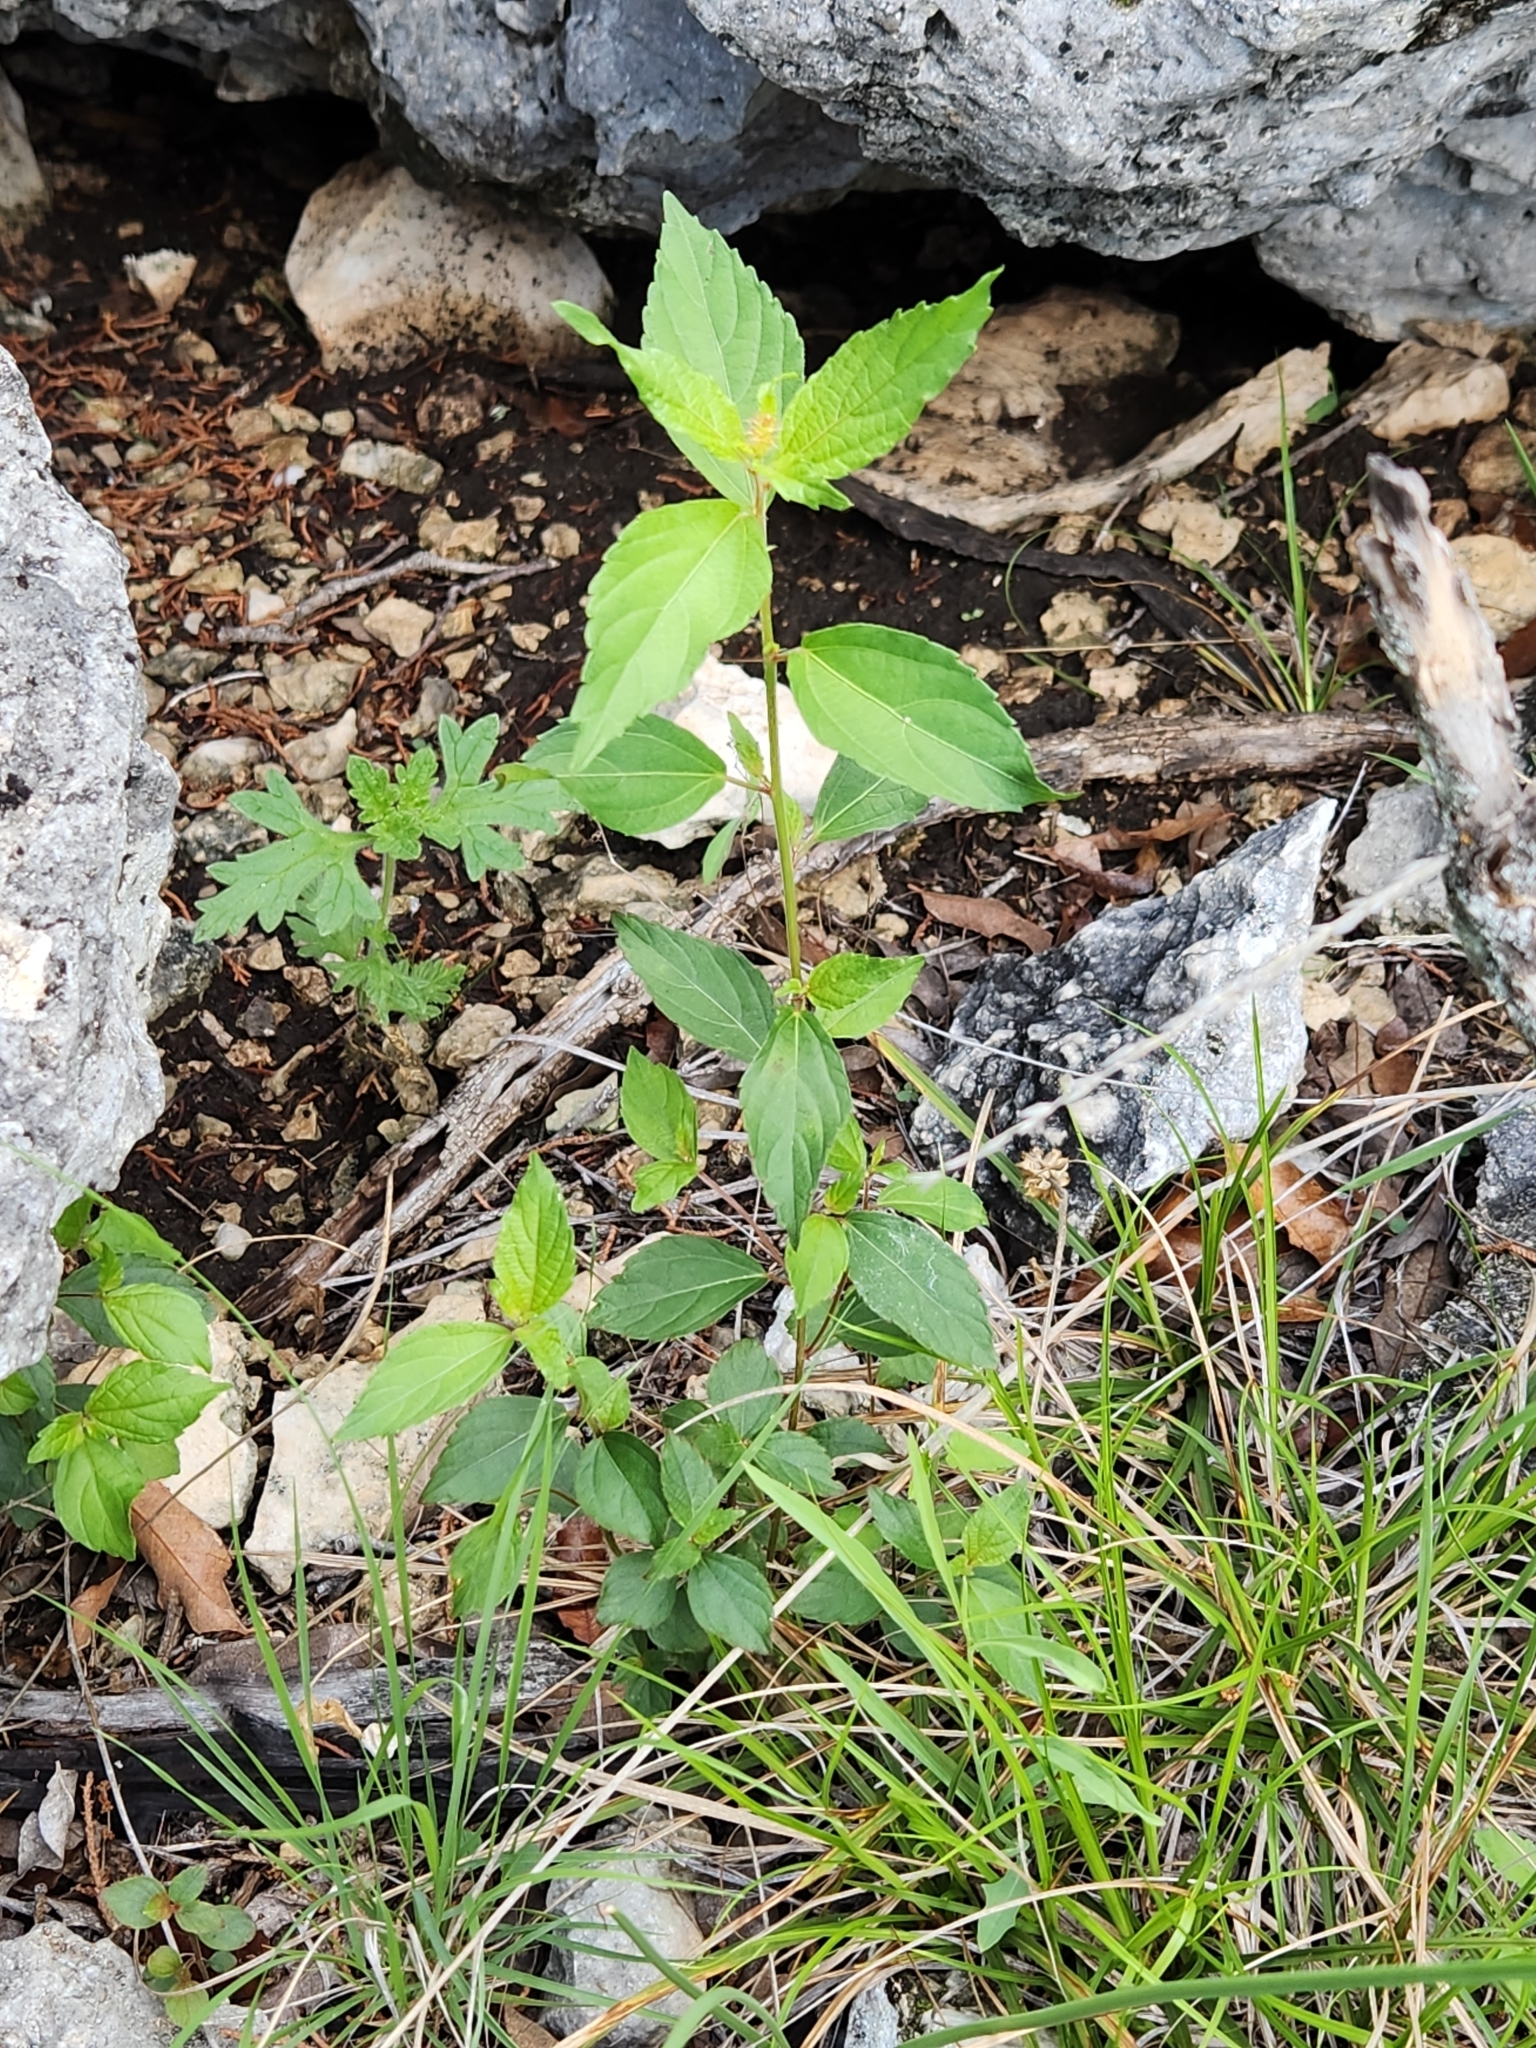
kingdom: Plantae
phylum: Tracheophyta
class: Magnoliopsida
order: Malpighiales
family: Euphorbiaceae
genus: Acalypha
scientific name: Acalypha phleoides
